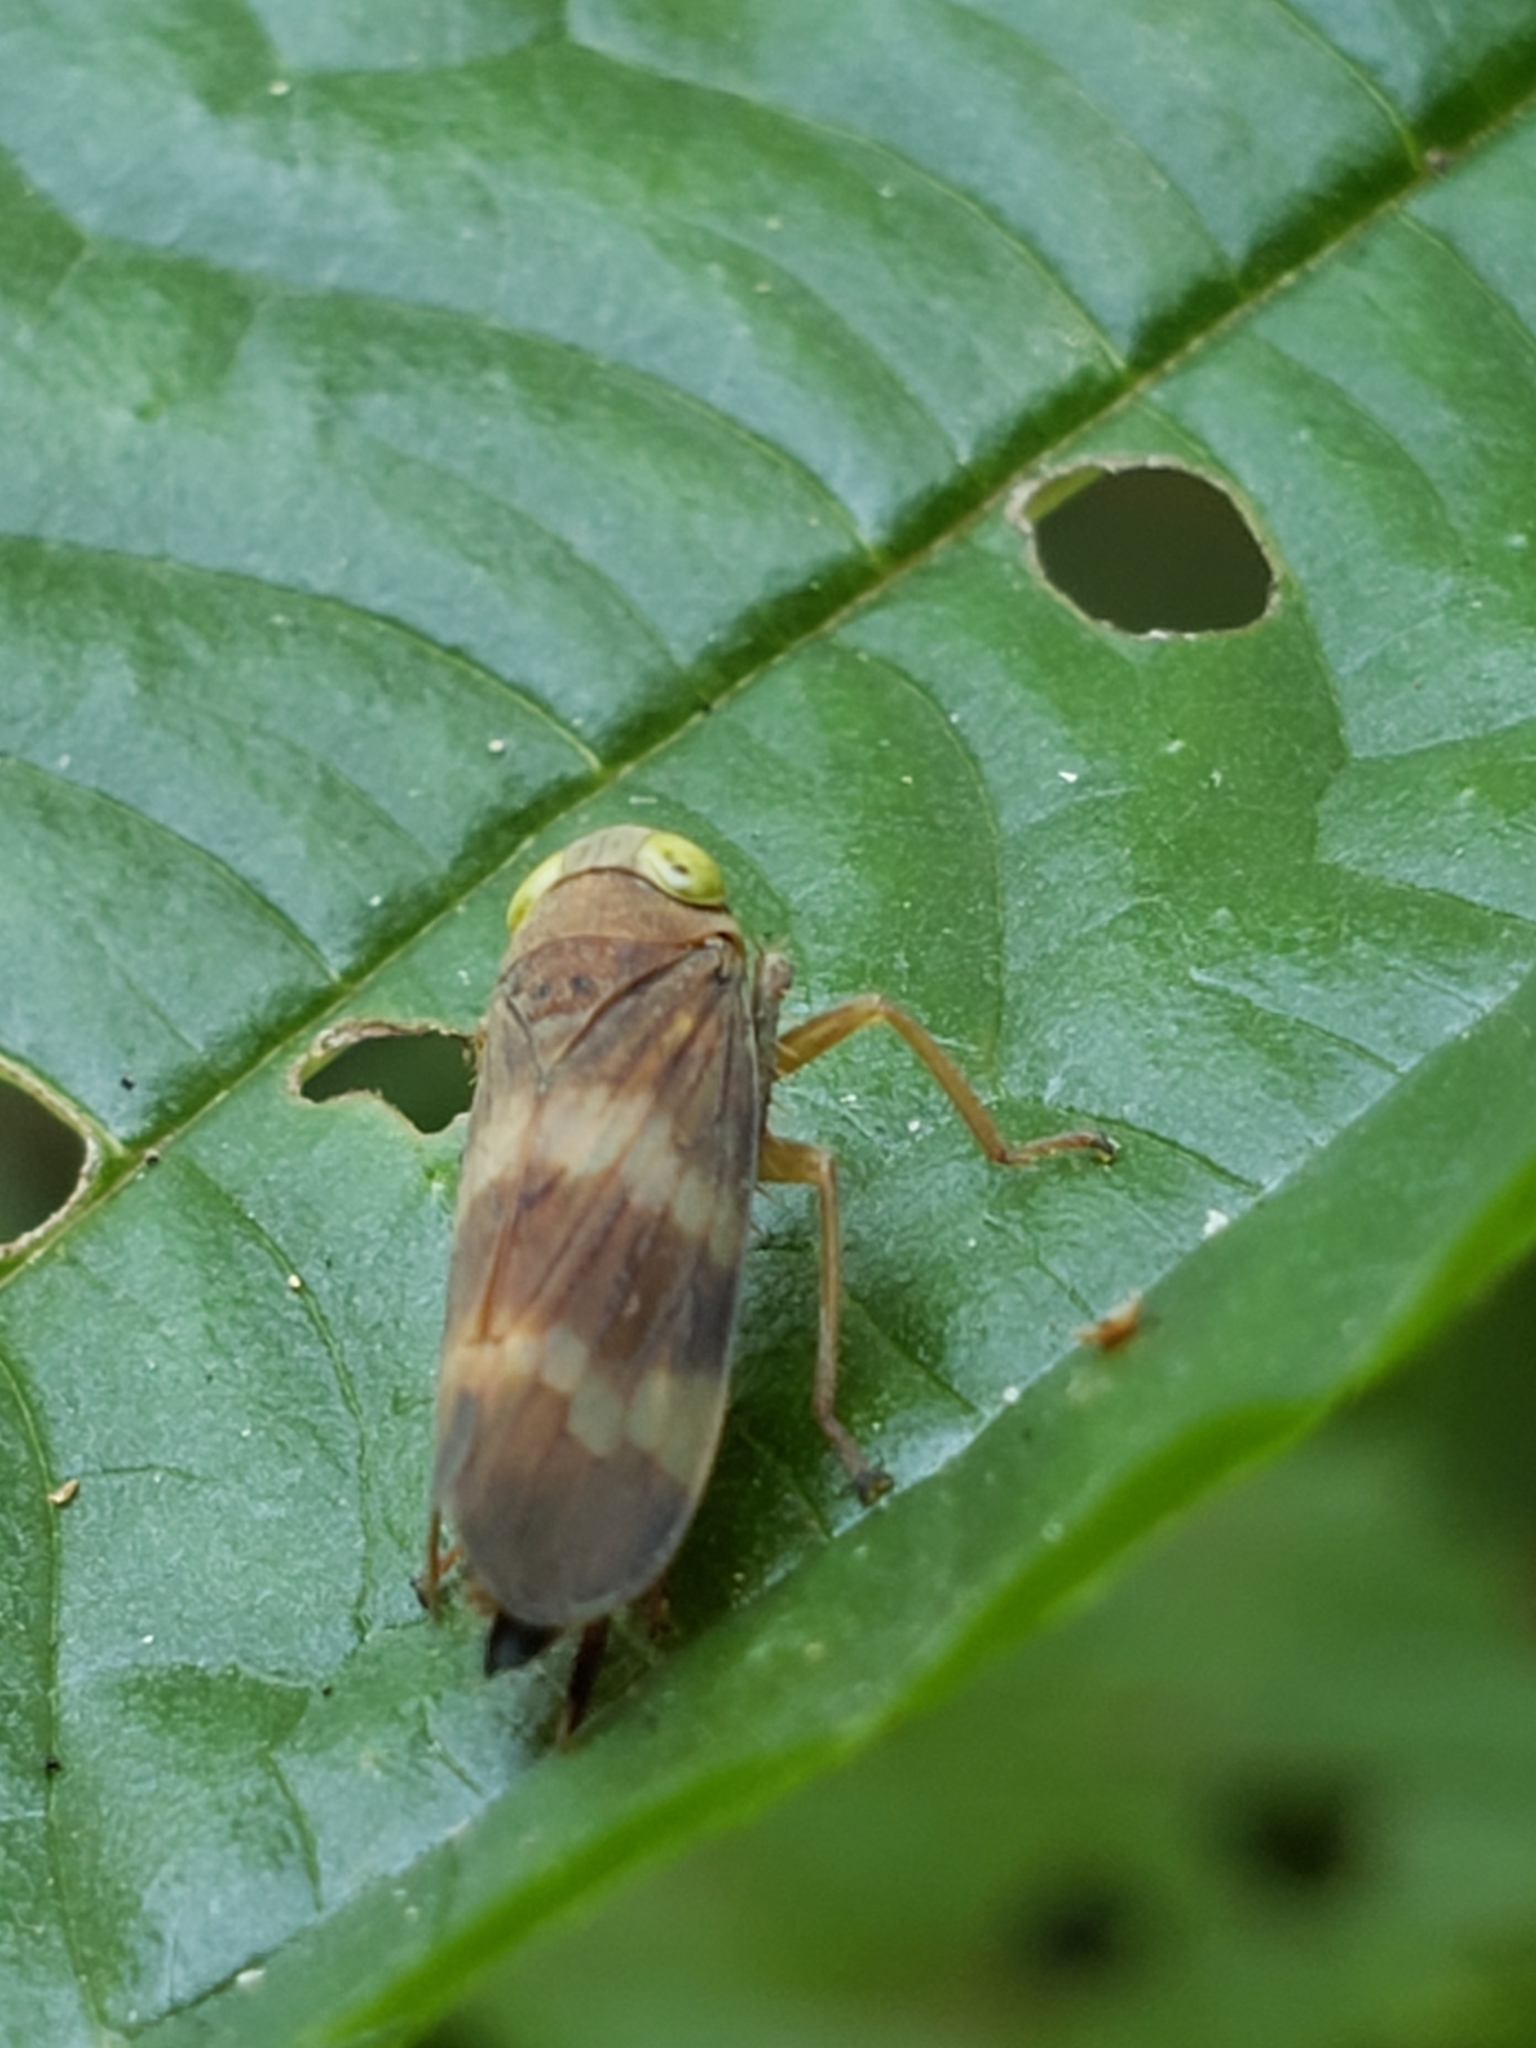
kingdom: Animalia
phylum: Arthropoda
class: Insecta
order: Hemiptera
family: Cicadellidae
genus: Jikradia
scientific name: Jikradia olitoria
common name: Coppery leafhopper
